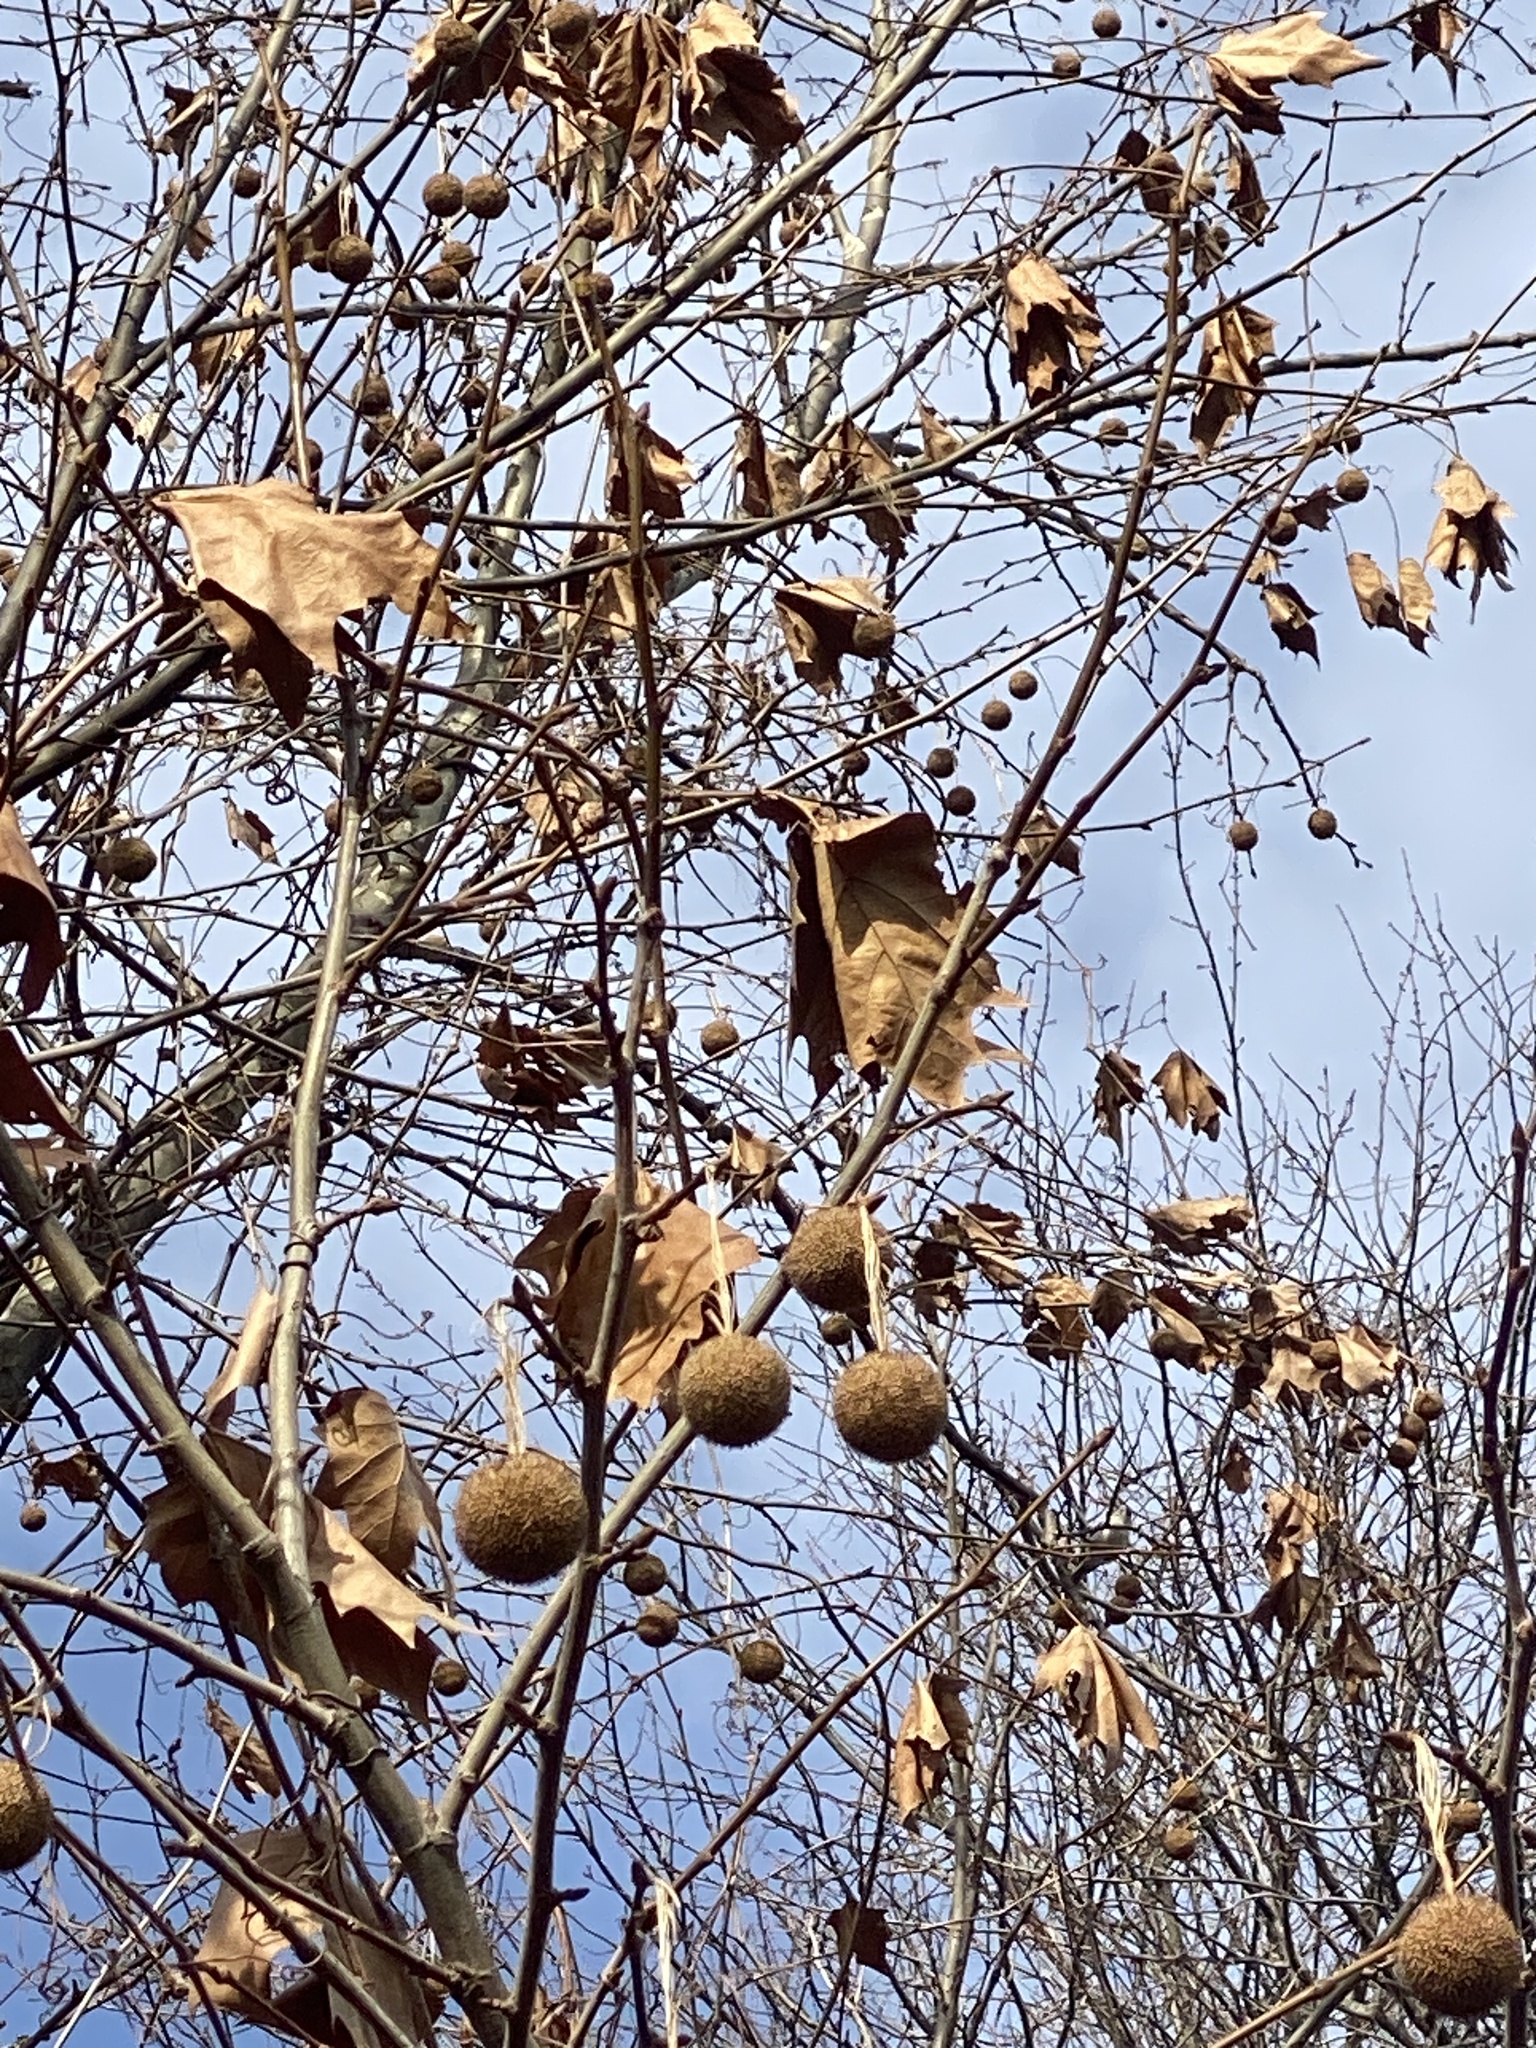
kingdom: Plantae
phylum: Tracheophyta
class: Magnoliopsida
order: Proteales
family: Platanaceae
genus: Platanus
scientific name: Platanus occidentalis
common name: American sycamore
